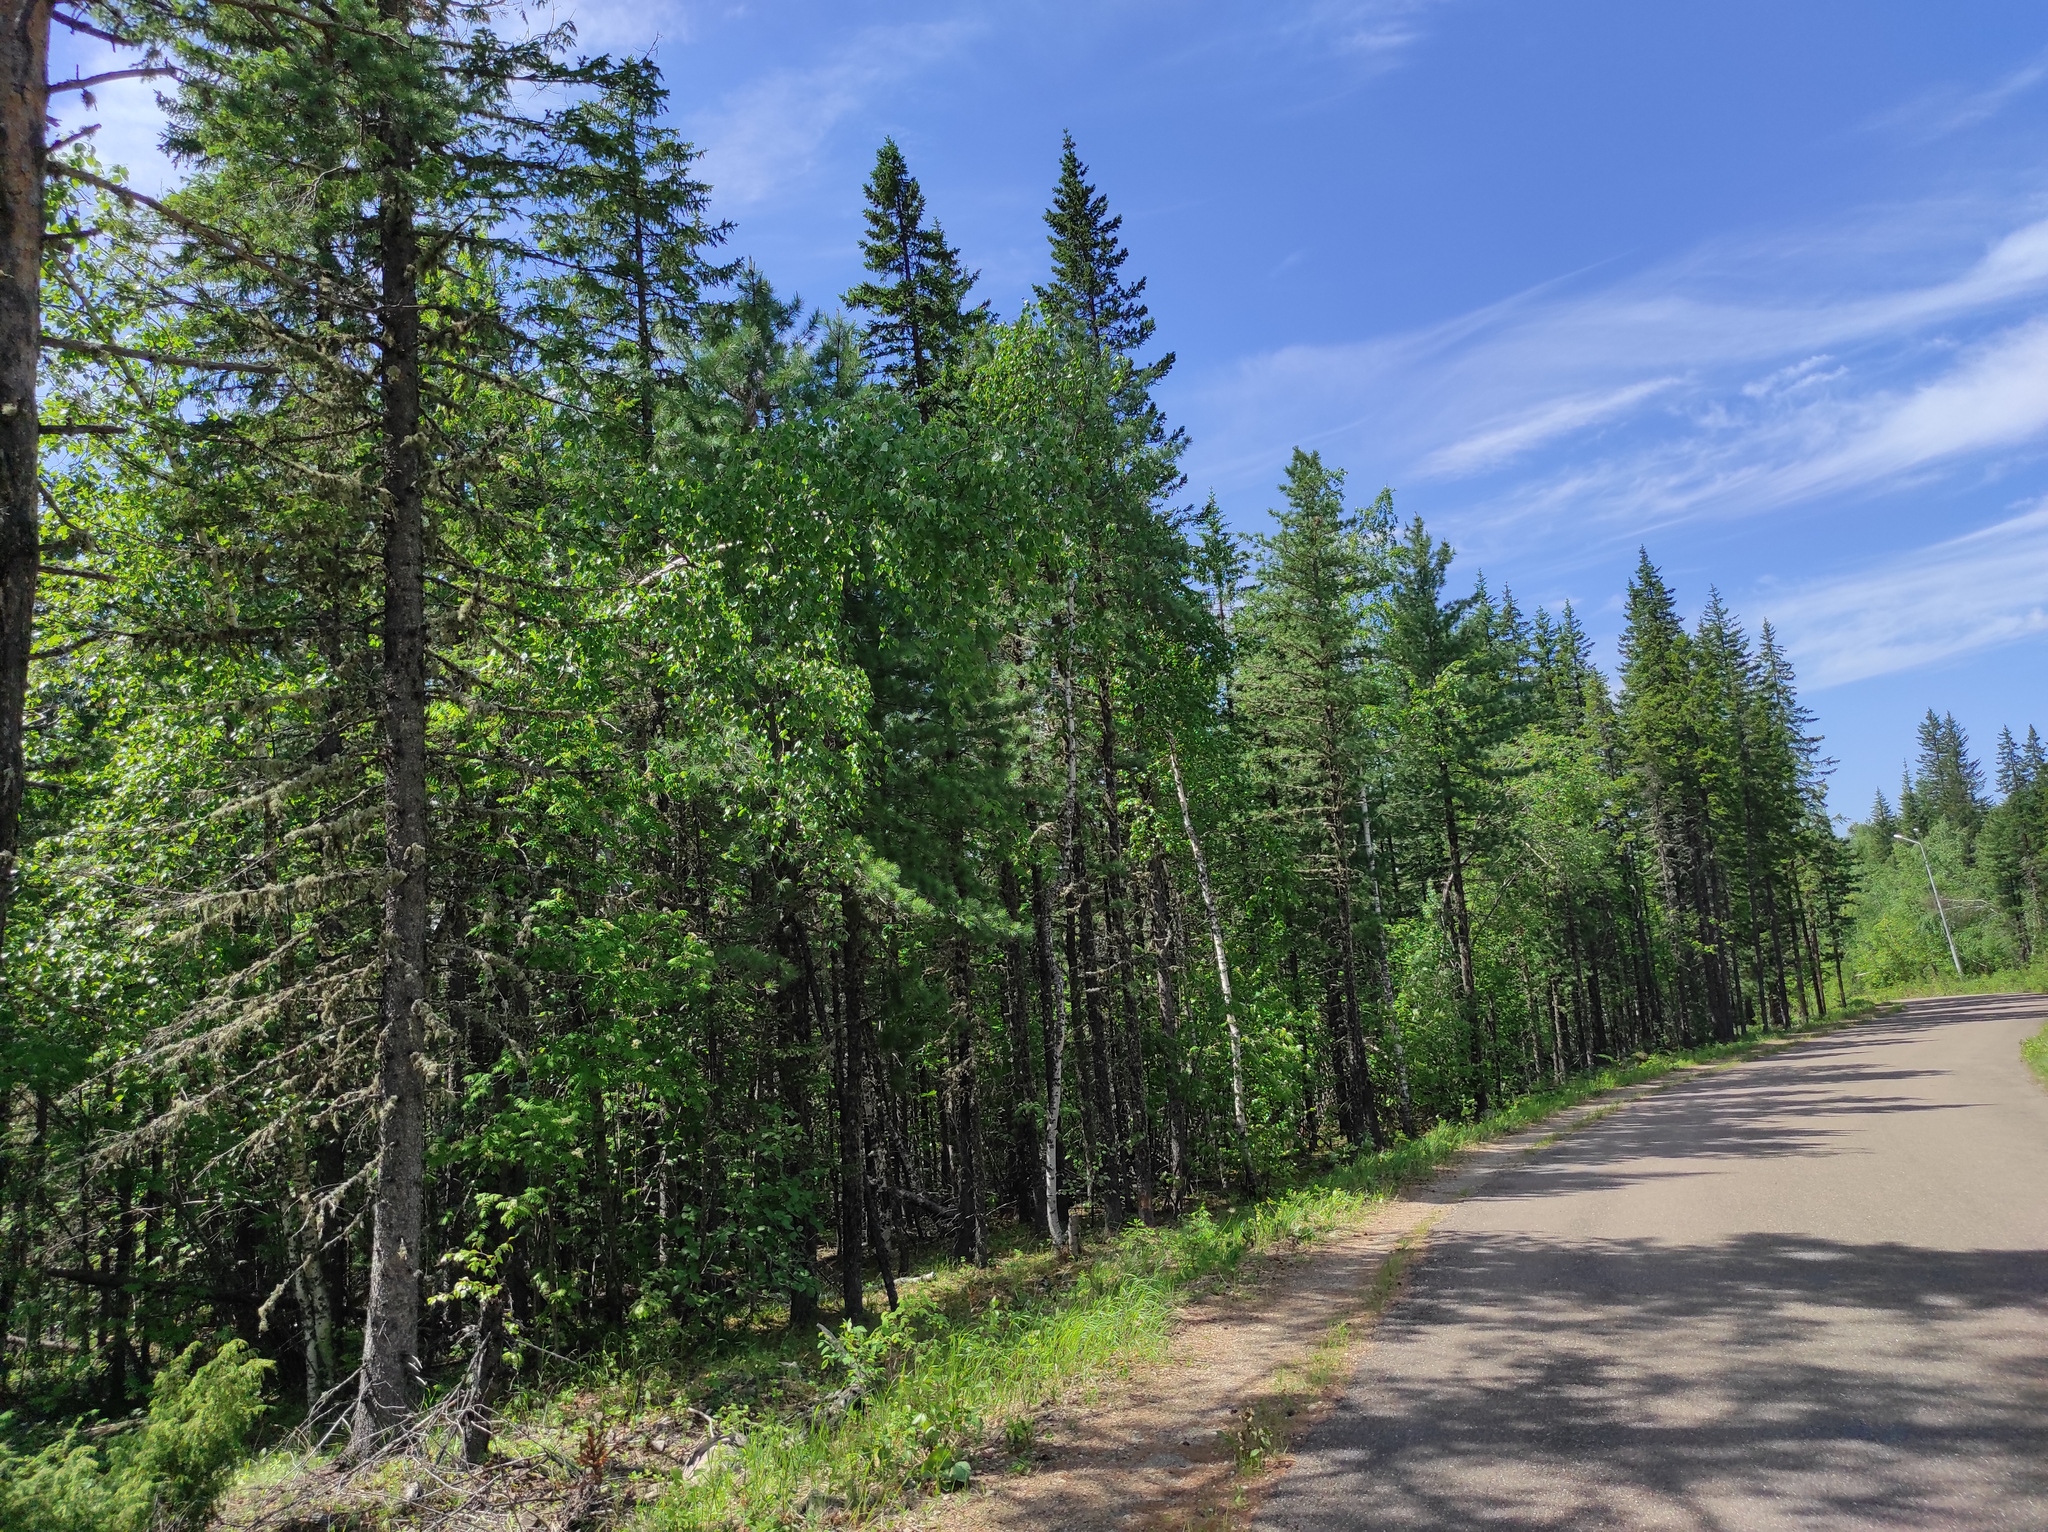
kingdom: Plantae
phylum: Tracheophyta
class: Pinopsida
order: Pinales
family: Pinaceae
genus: Picea
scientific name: Picea obovata
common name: Siberian spruce
